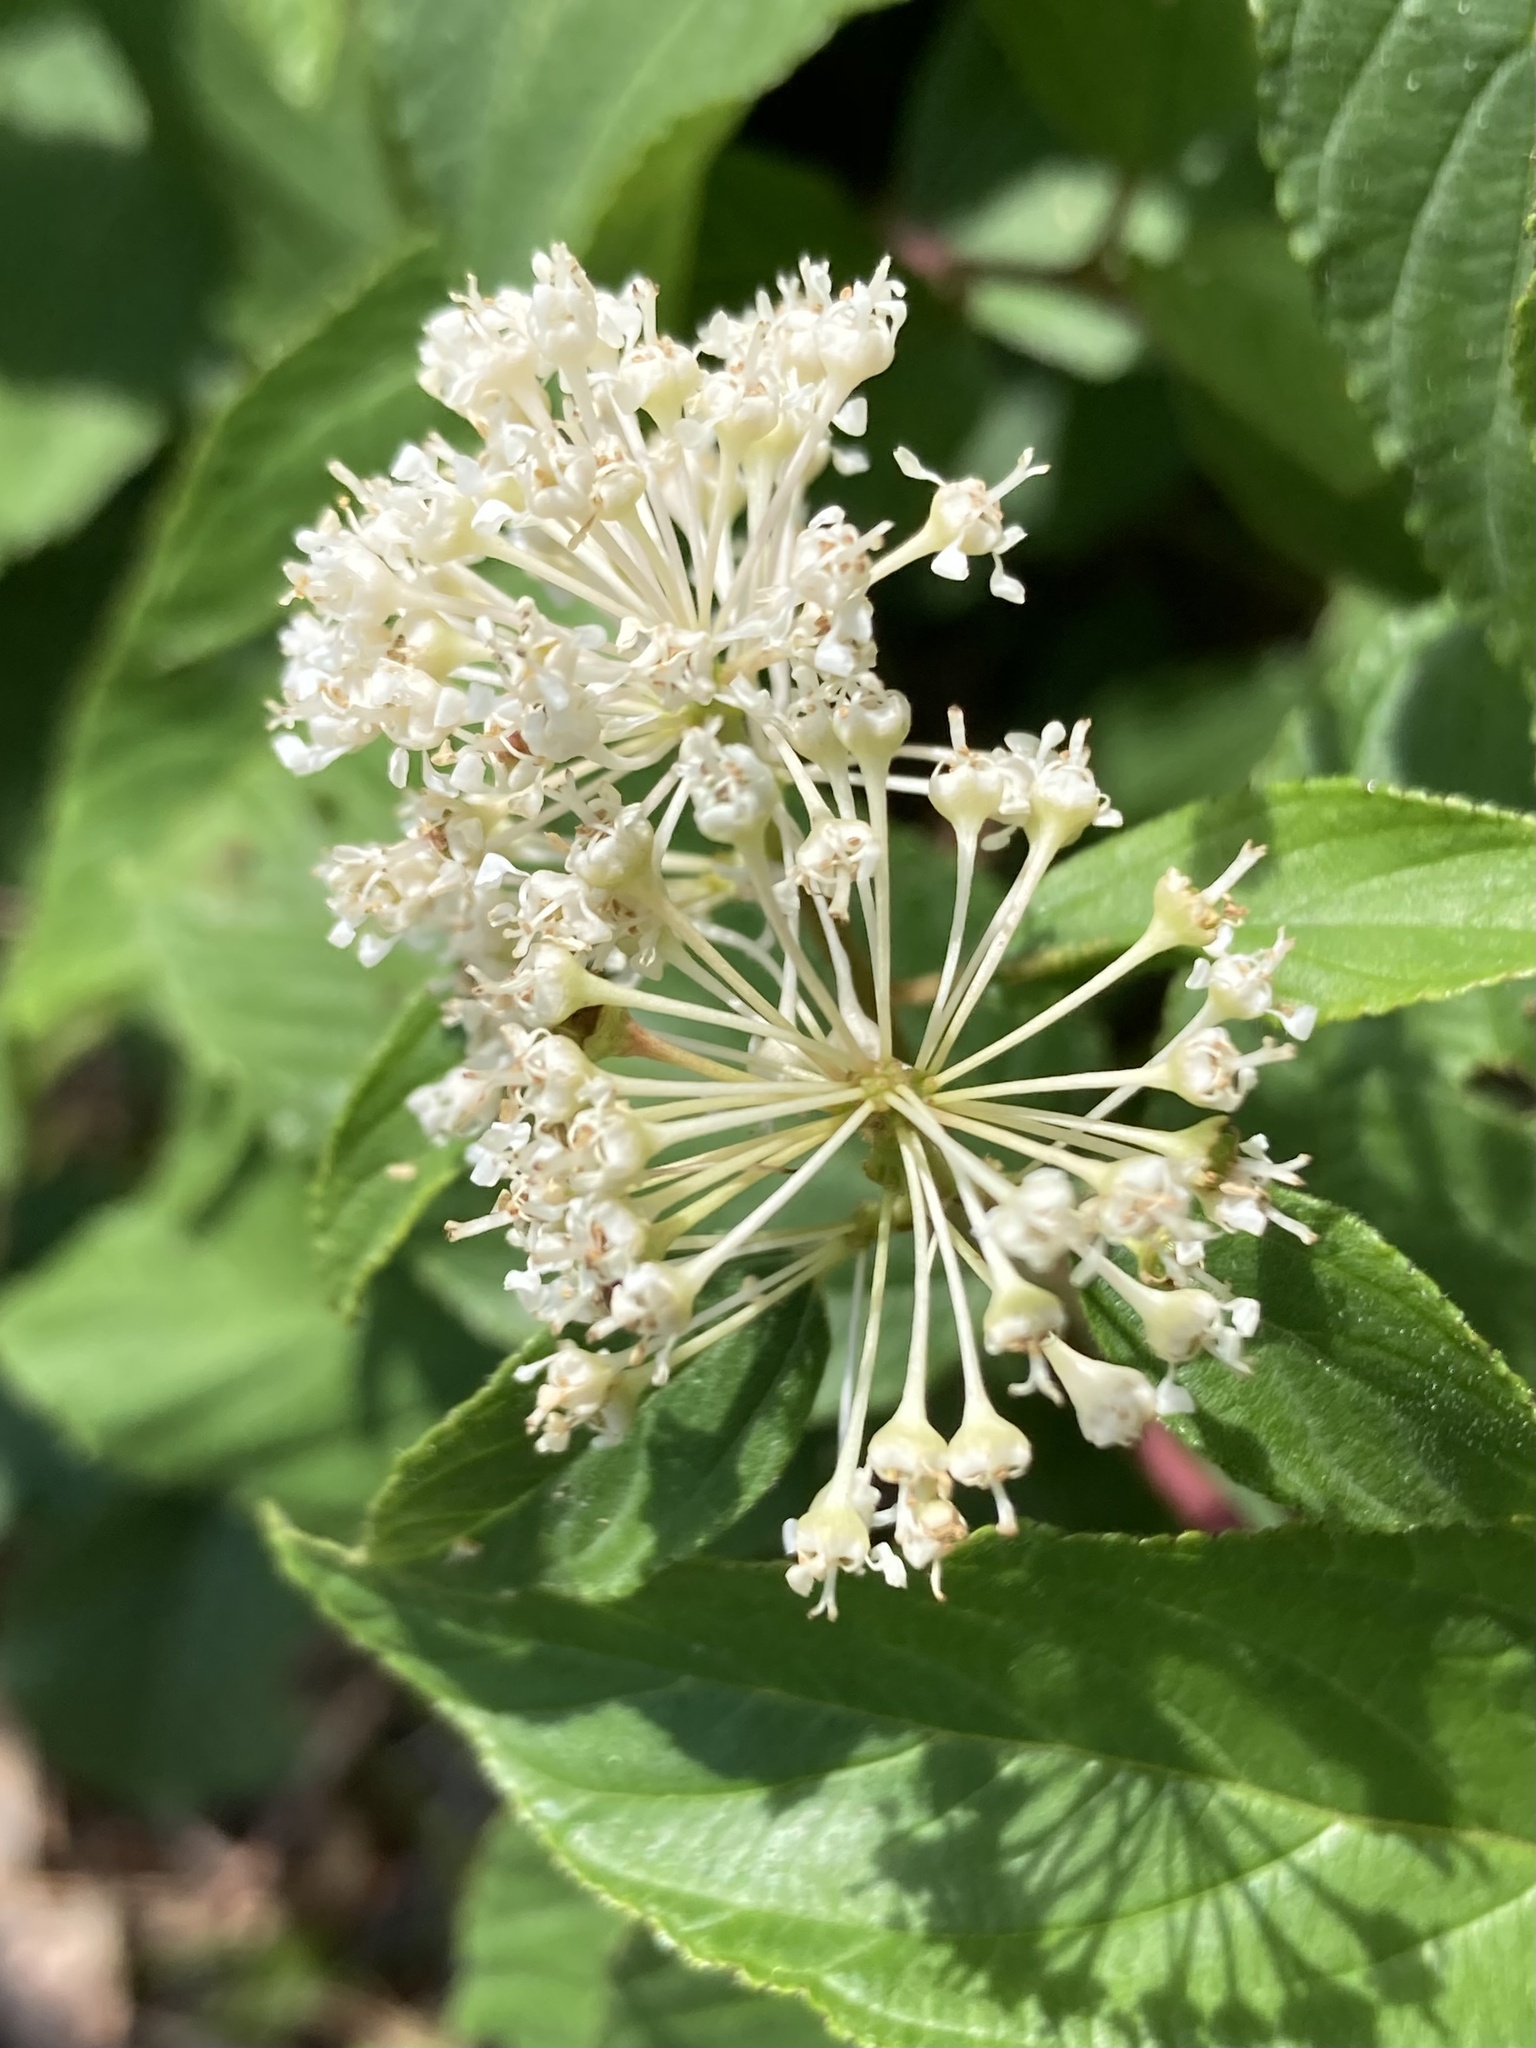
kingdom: Plantae
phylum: Tracheophyta
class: Magnoliopsida
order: Rosales
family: Rhamnaceae
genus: Ceanothus
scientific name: Ceanothus americanus
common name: Redroot
